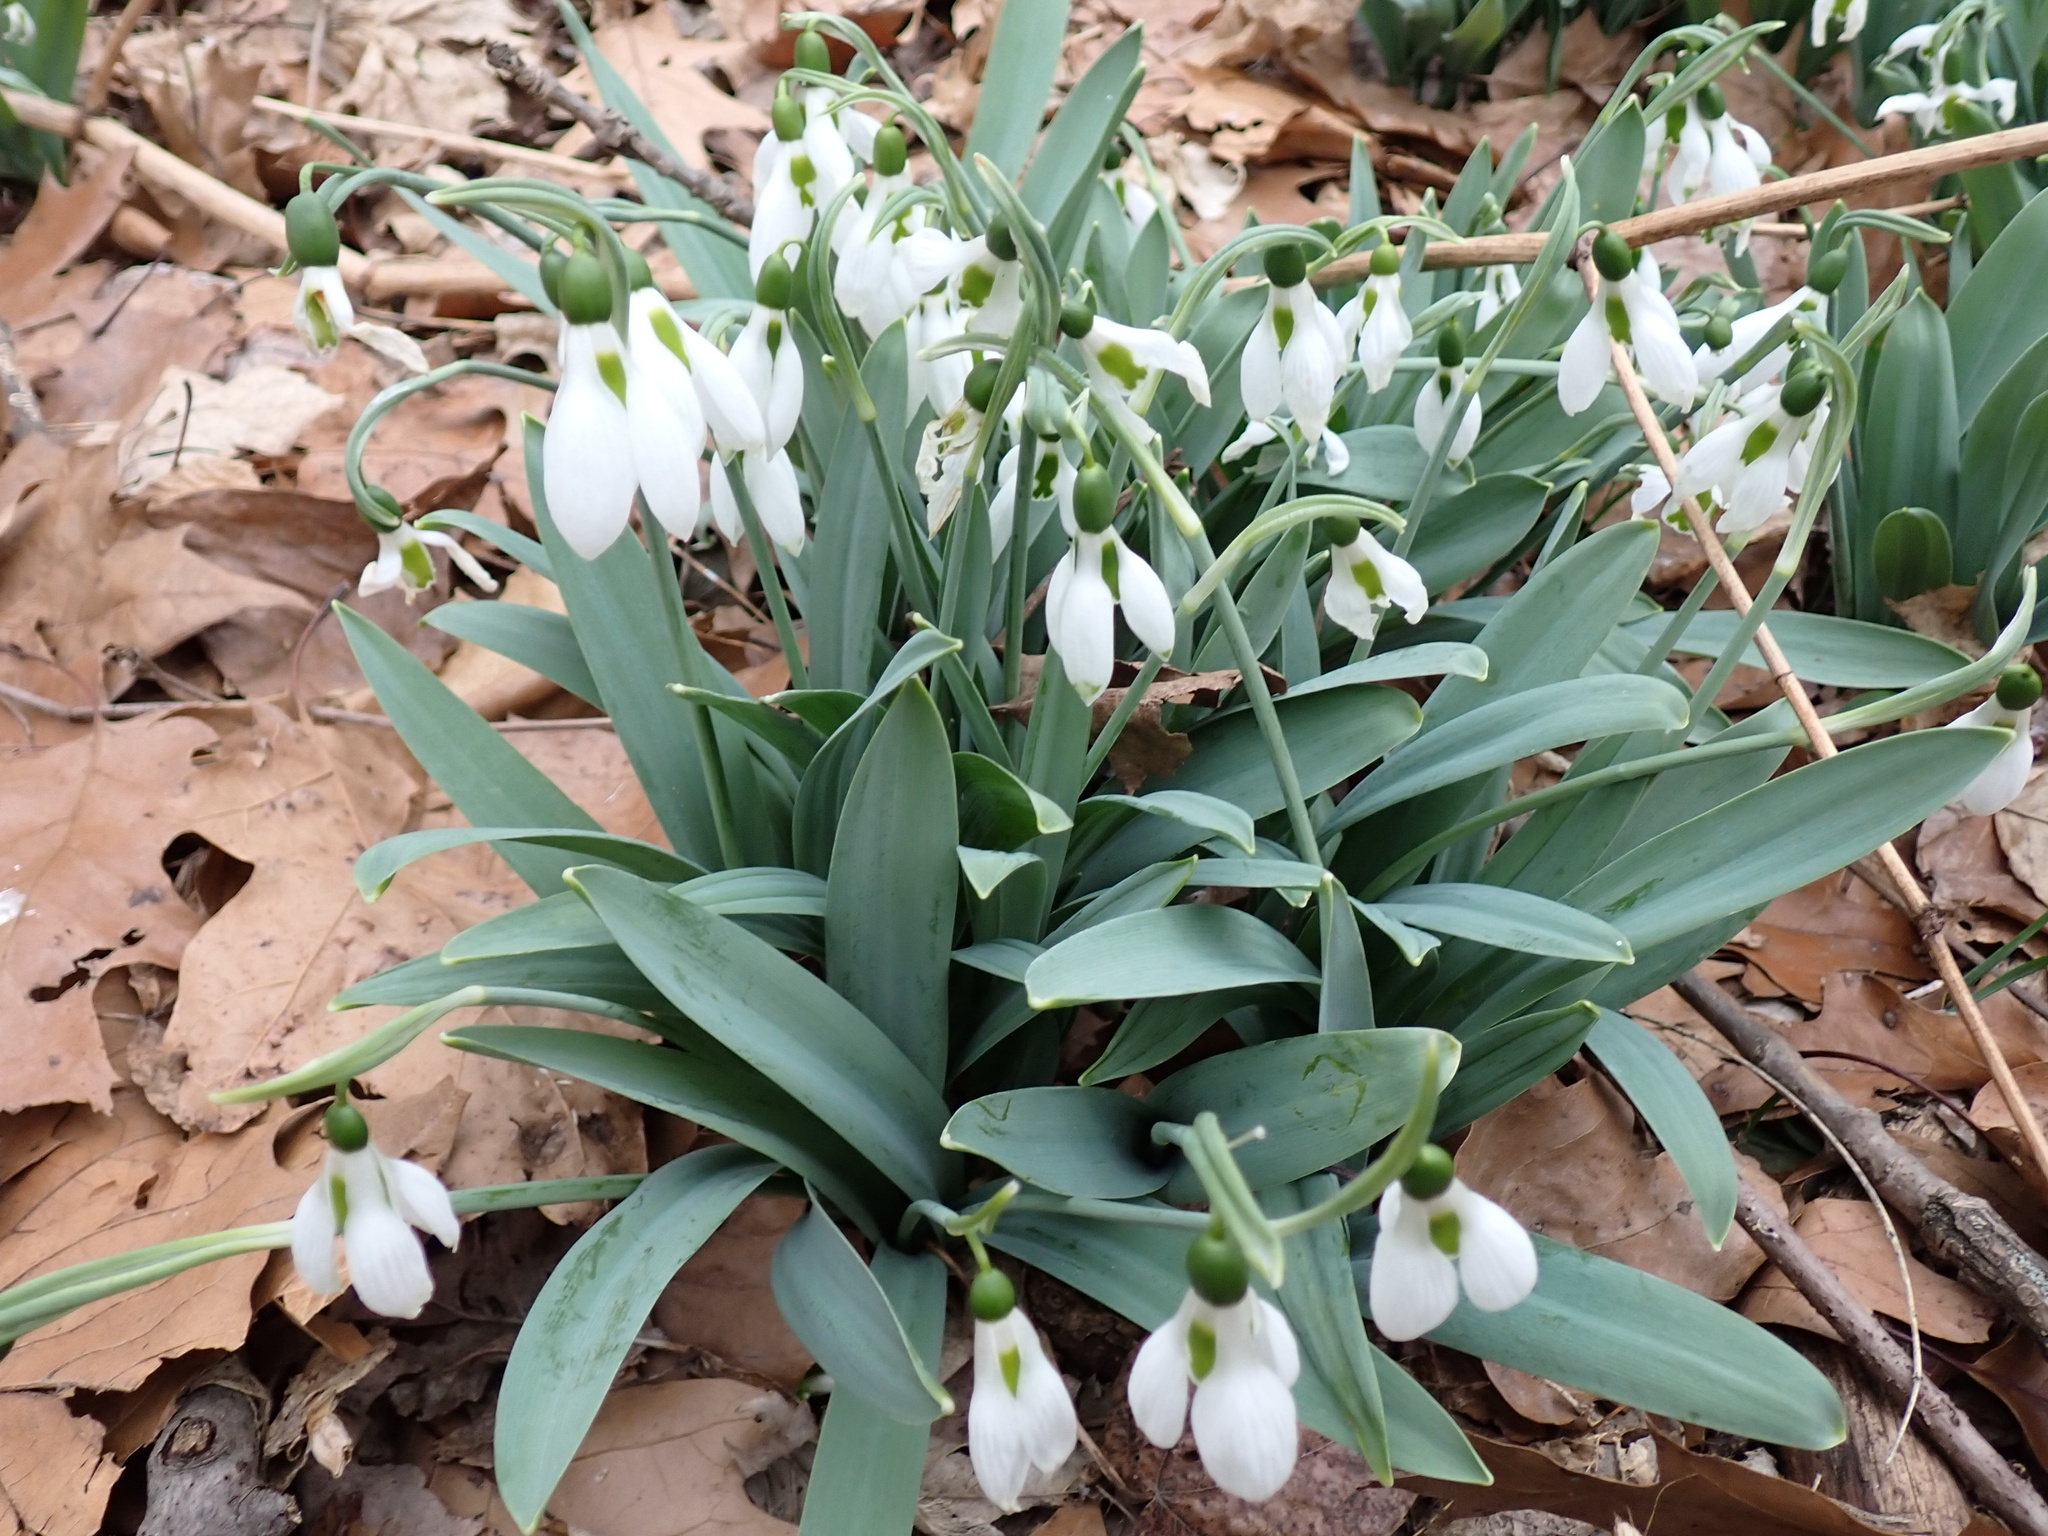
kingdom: Plantae
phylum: Tracheophyta
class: Liliopsida
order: Asparagales
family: Amaryllidaceae
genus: Galanthus
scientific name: Galanthus elwesii
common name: Greater snowdrop
